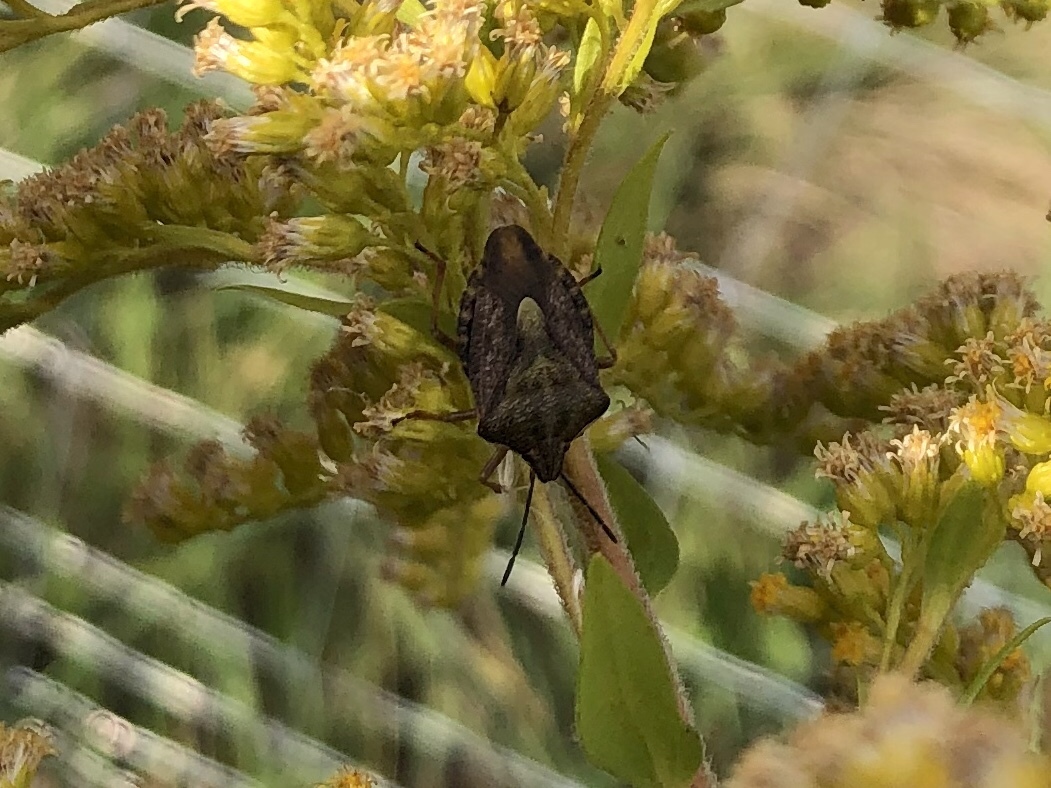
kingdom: Animalia
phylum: Arthropoda
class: Insecta
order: Hemiptera
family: Pentatomidae
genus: Carpocoris
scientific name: Carpocoris purpureipennis
